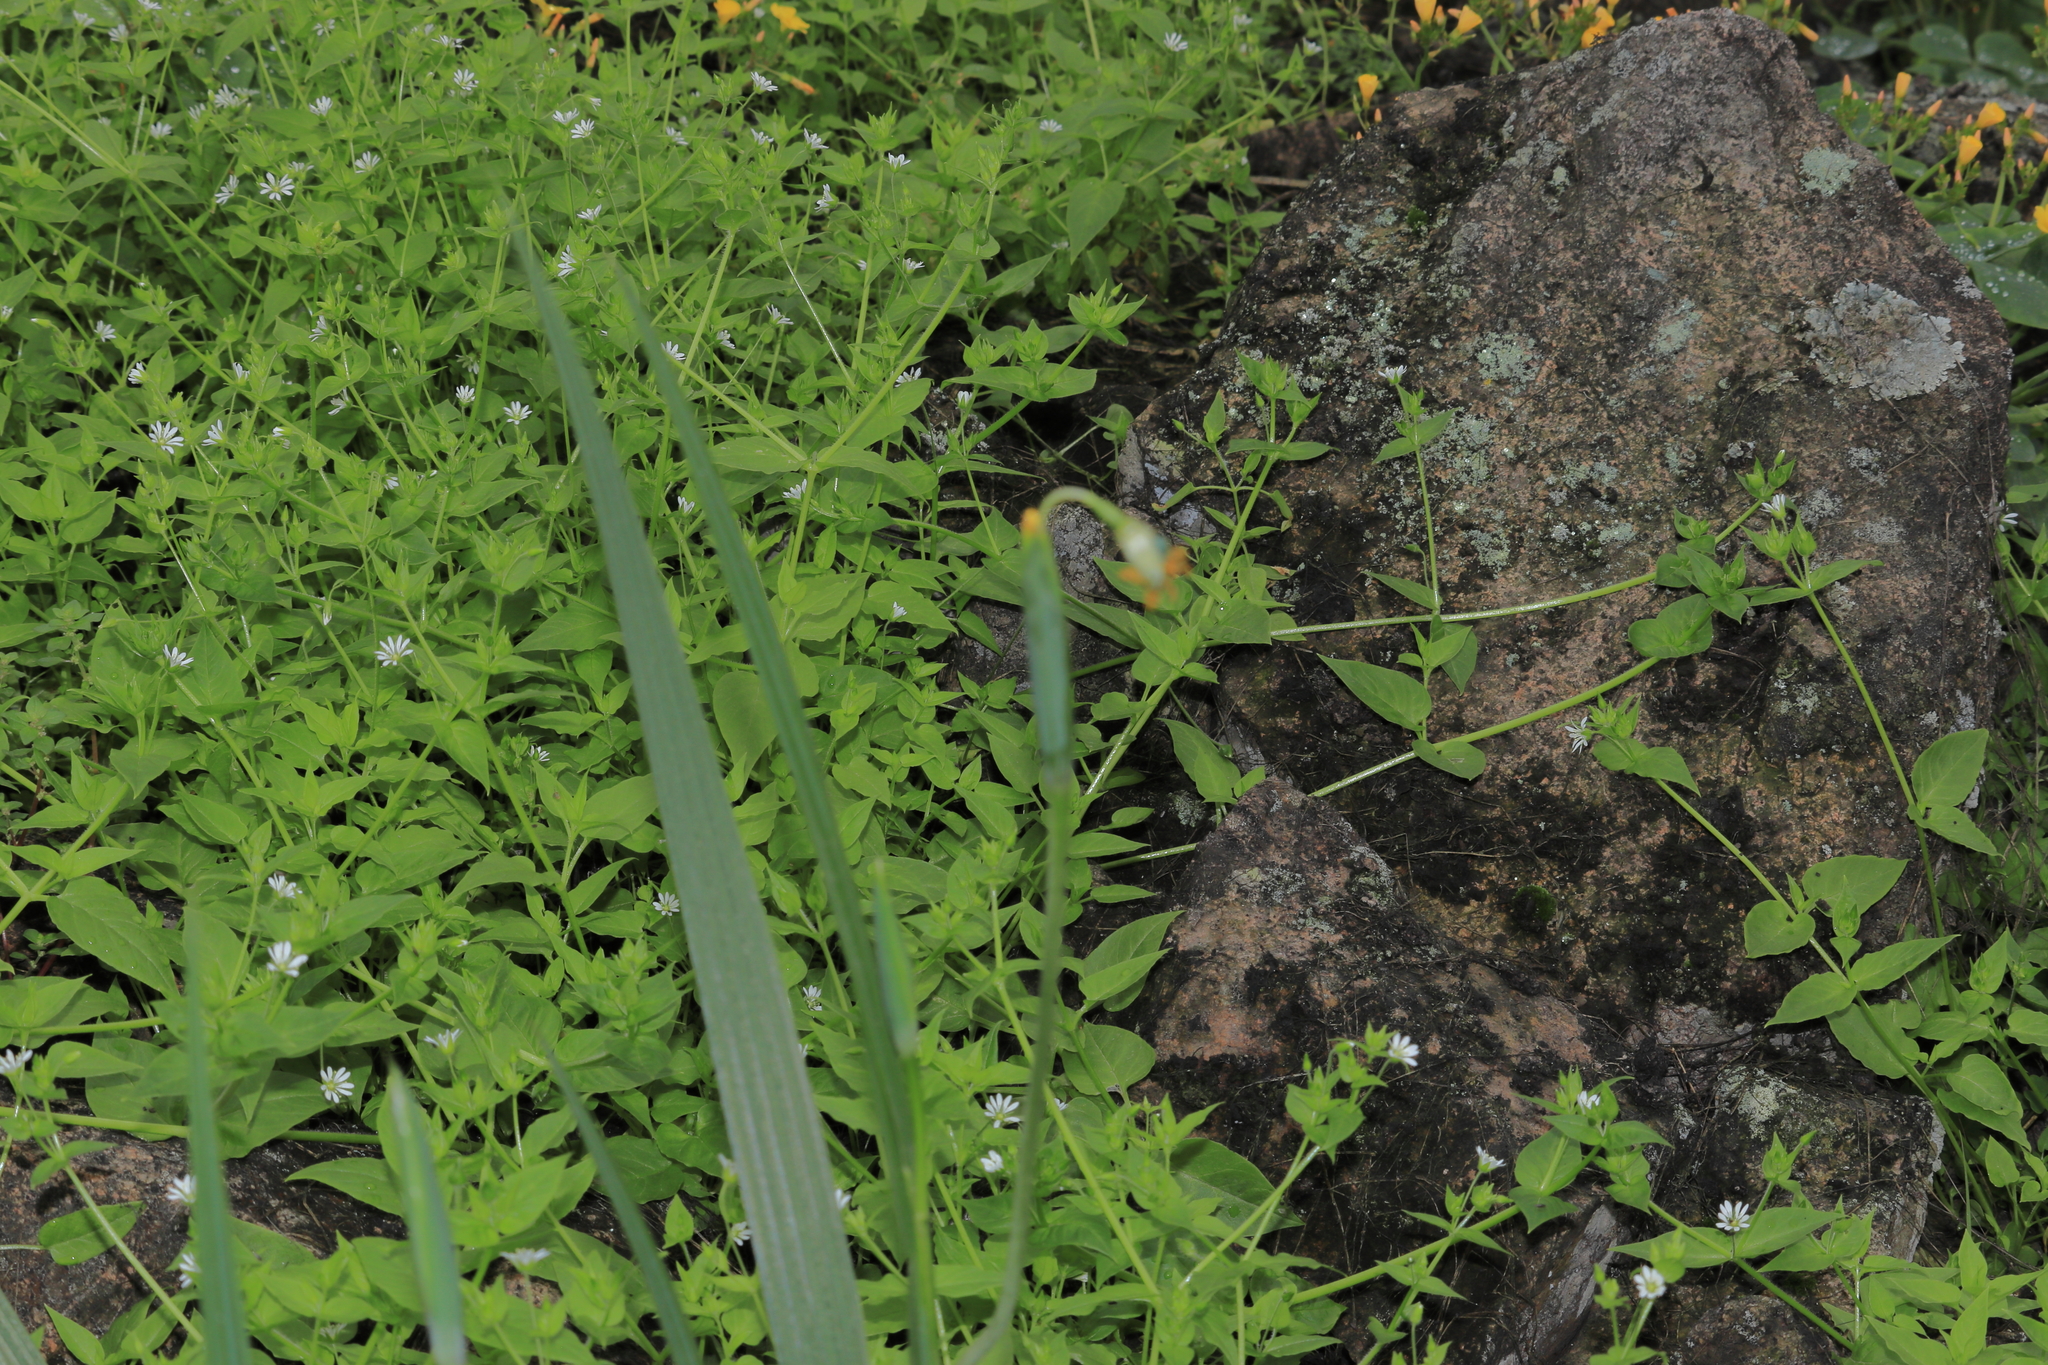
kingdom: Plantae
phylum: Tracheophyta
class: Liliopsida
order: Asparagales
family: Iridaceae
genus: Tigridia
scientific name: Tigridia pavonia
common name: Peacock-flower
